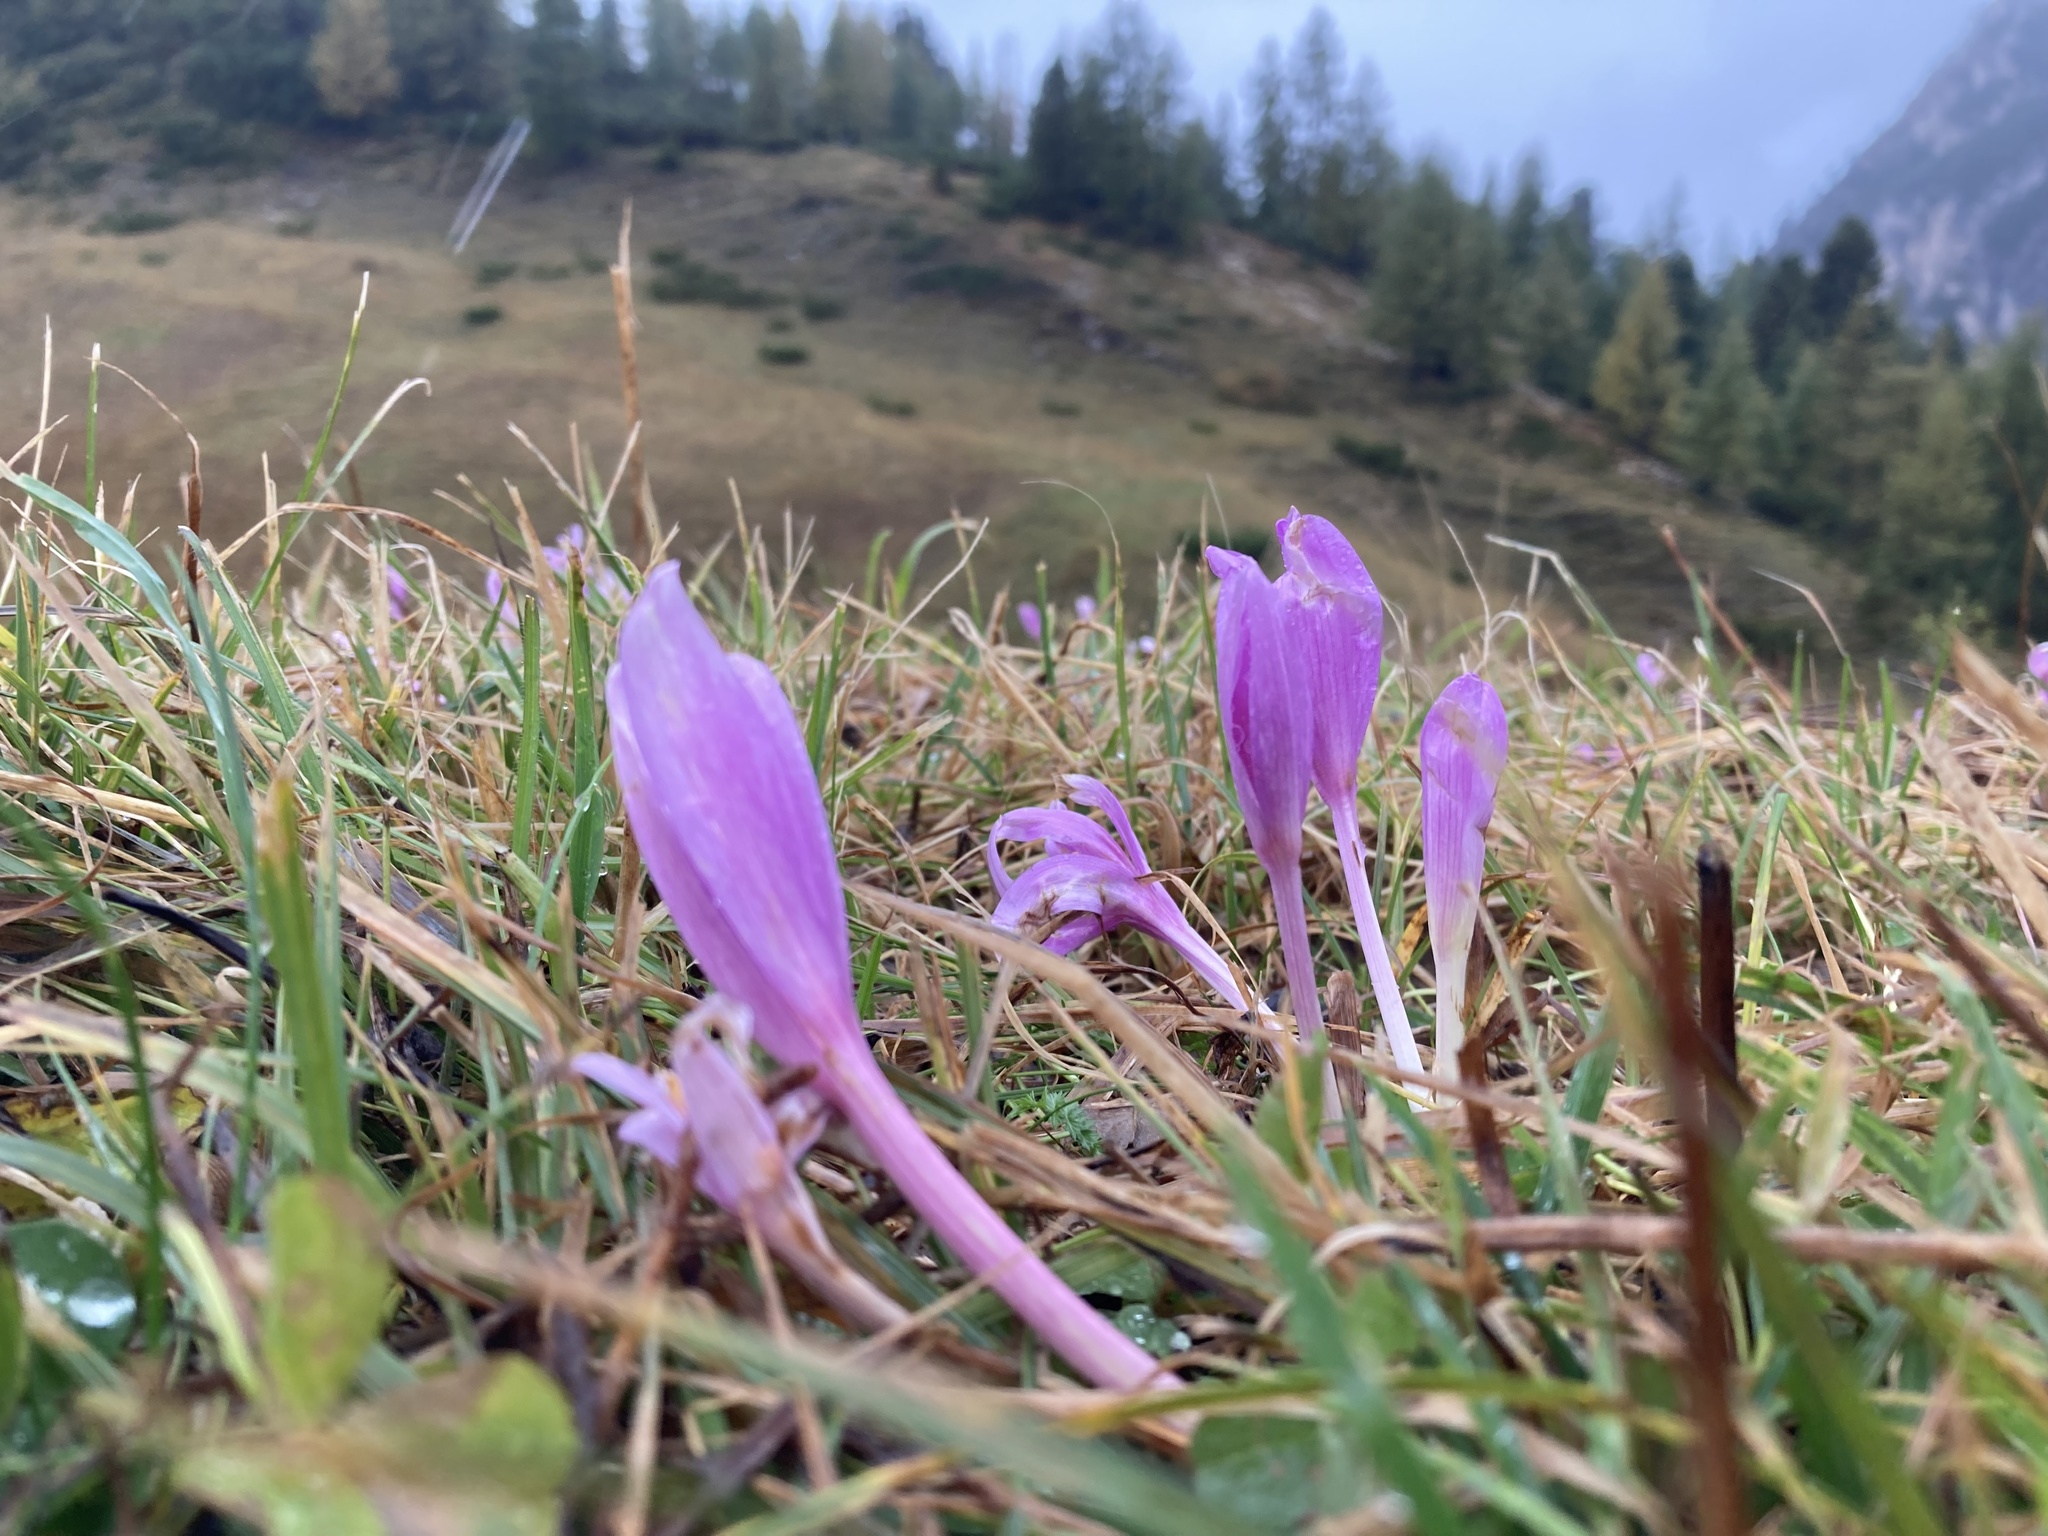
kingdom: Plantae
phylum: Tracheophyta
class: Liliopsida
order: Liliales
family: Colchicaceae
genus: Colchicum
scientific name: Colchicum autumnale
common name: Autumn crocus
